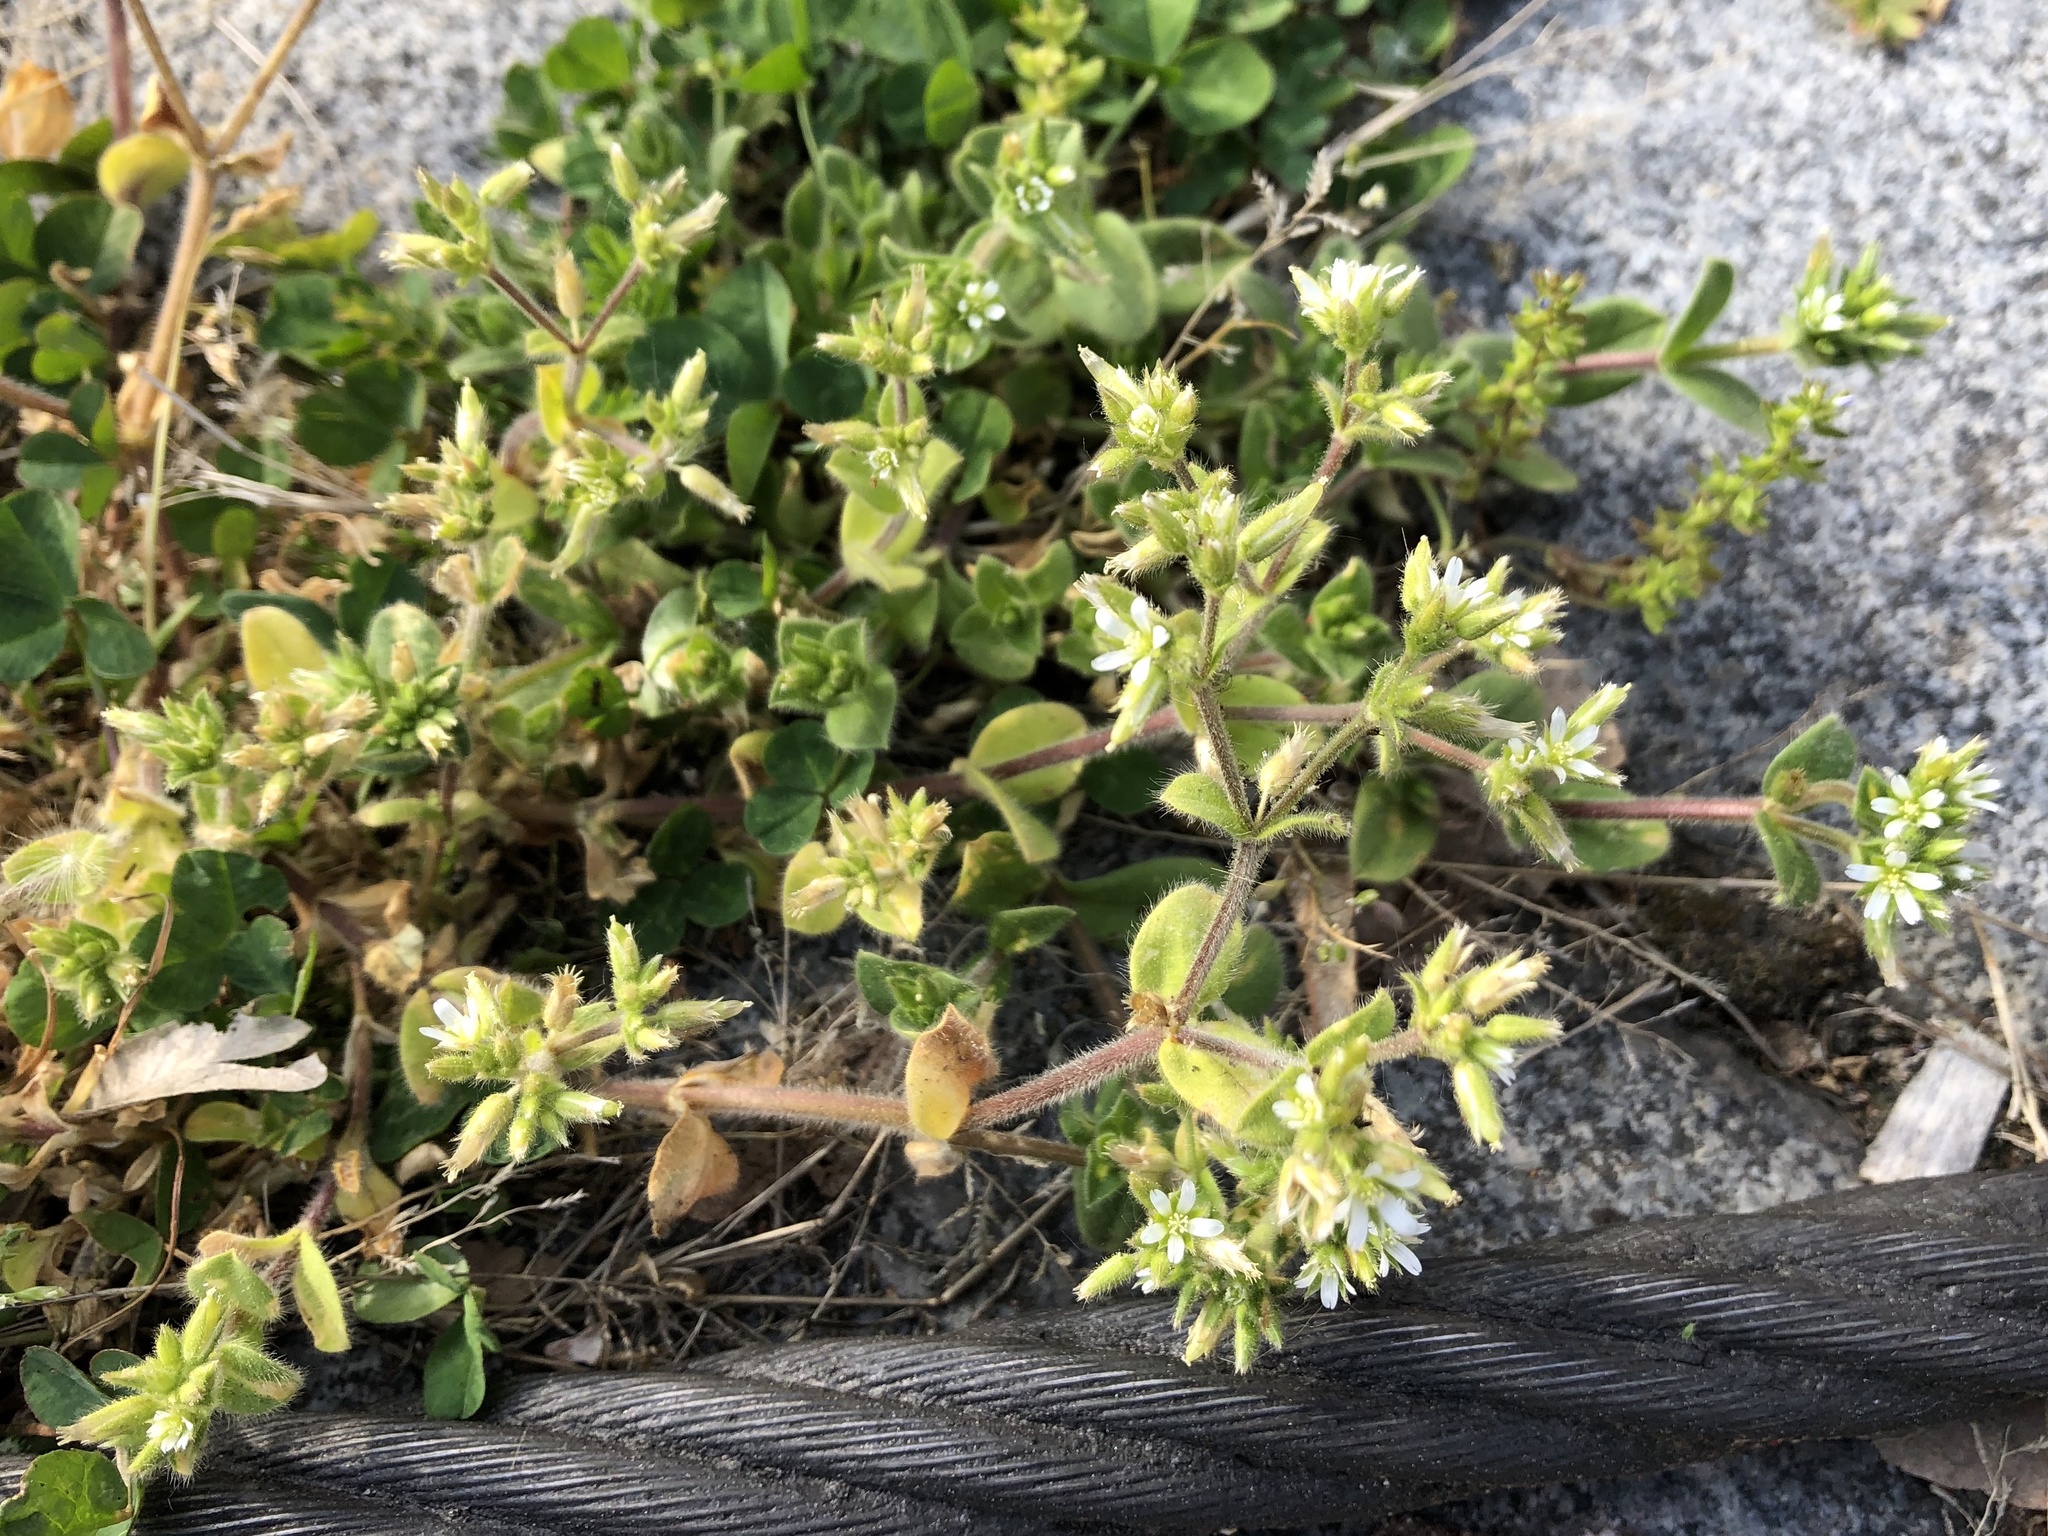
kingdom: Plantae
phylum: Tracheophyta
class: Magnoliopsida
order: Caryophyllales
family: Caryophyllaceae
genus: Cerastium
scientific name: Cerastium glomeratum
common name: Sticky chickweed
